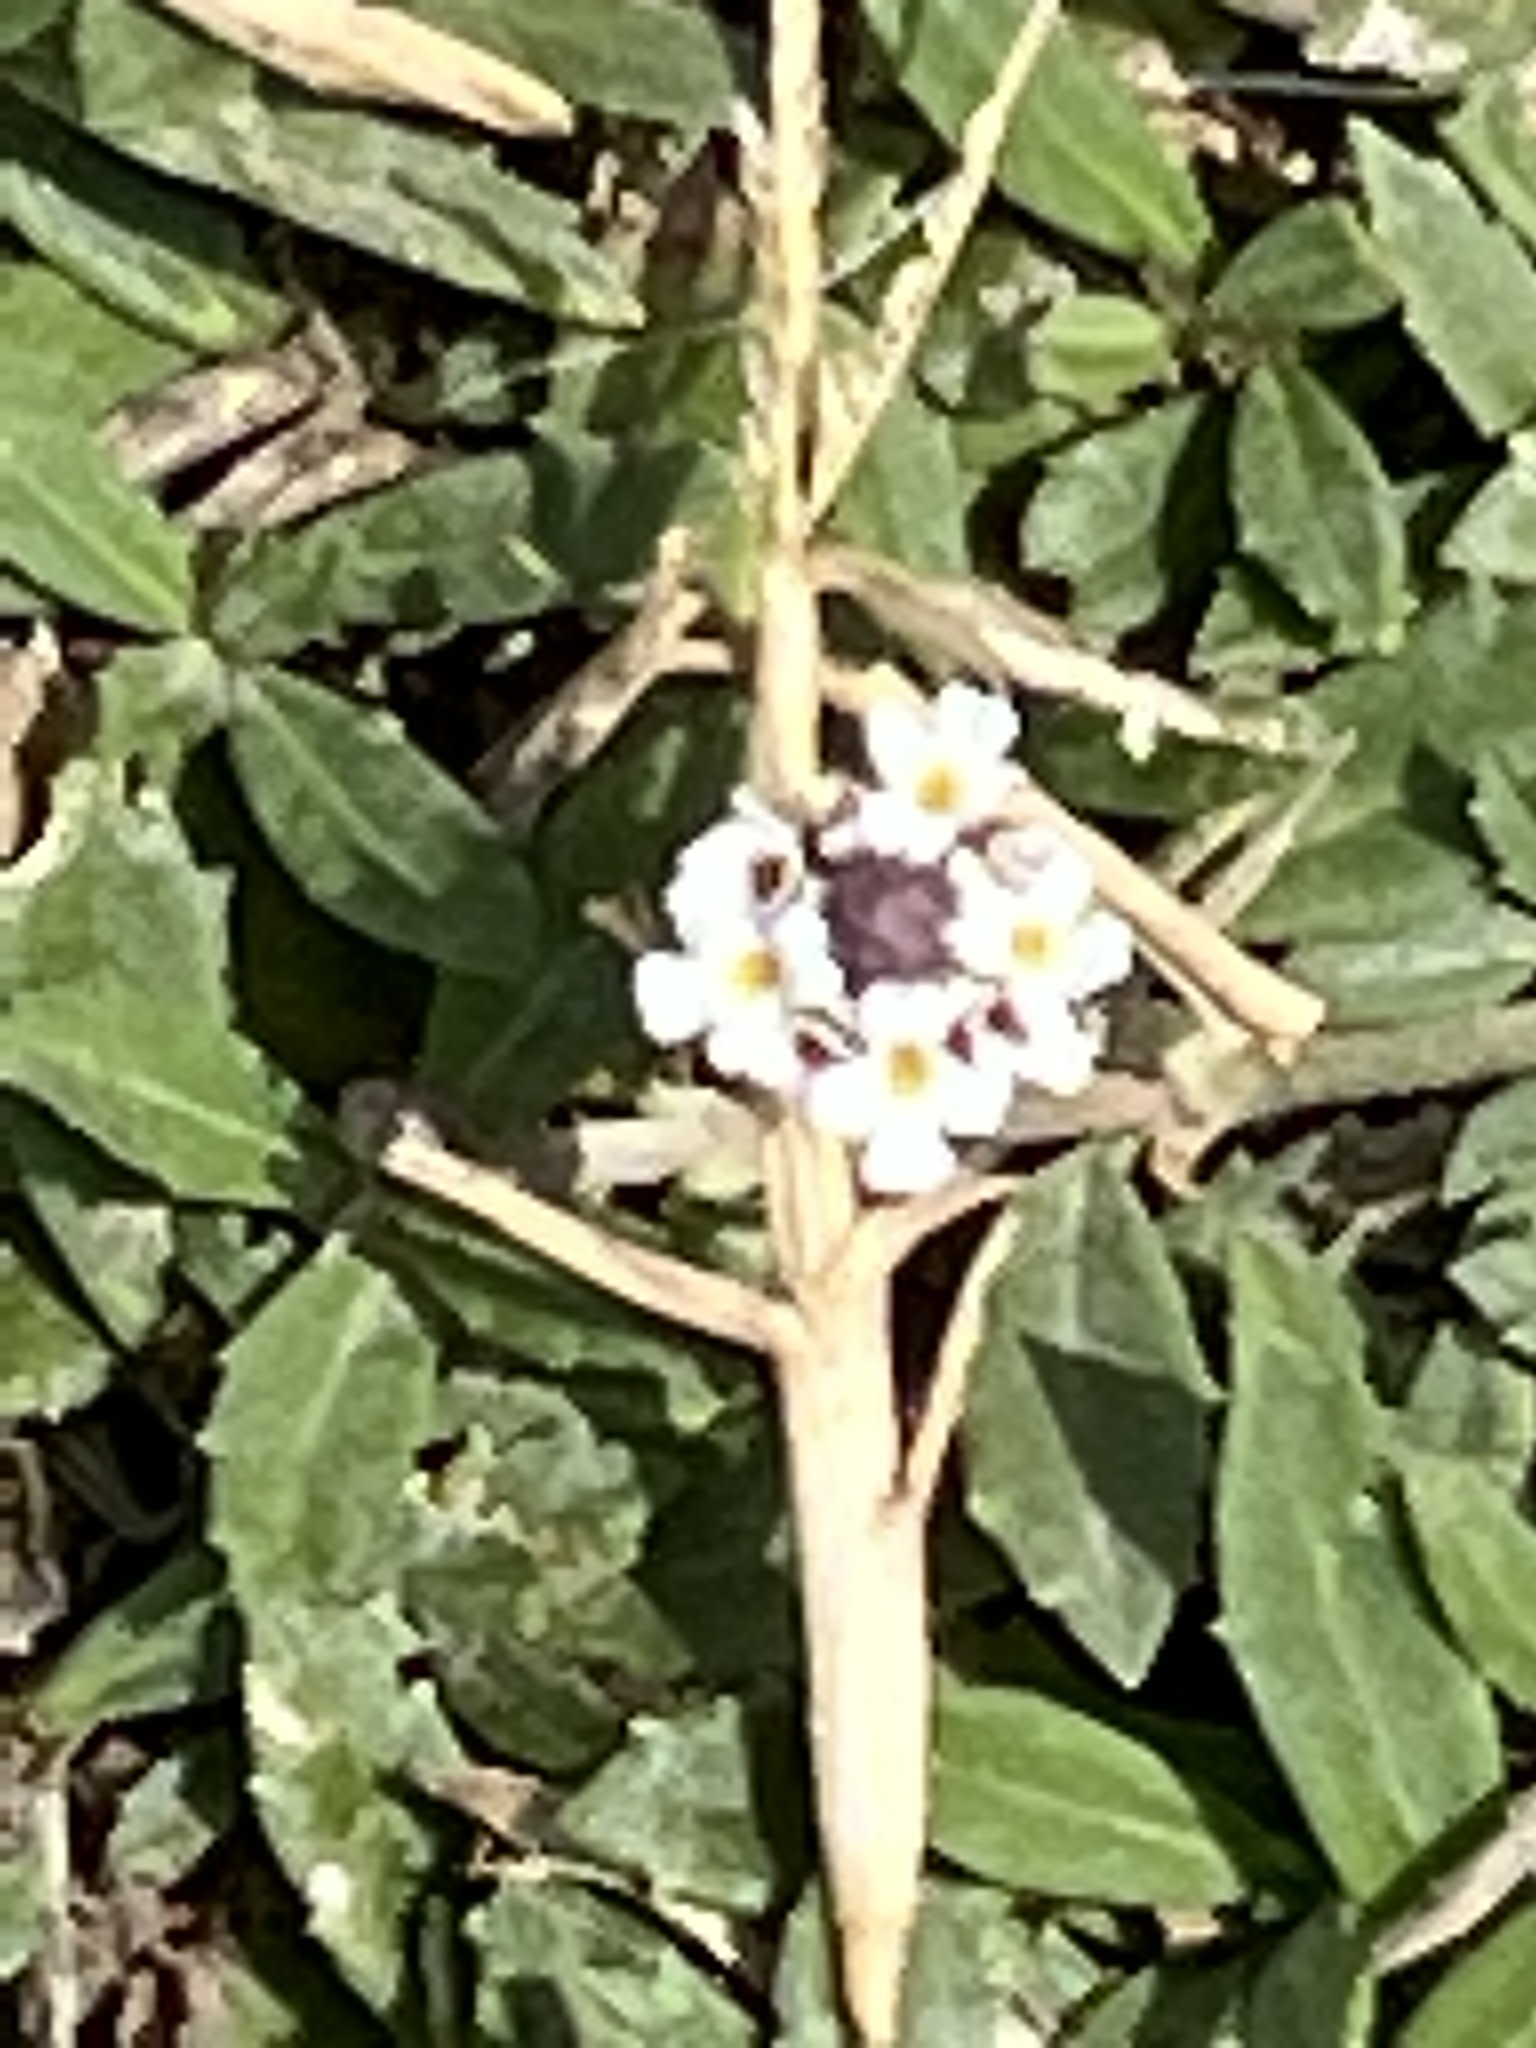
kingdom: Plantae
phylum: Tracheophyta
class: Magnoliopsida
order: Lamiales
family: Verbenaceae
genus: Phyla
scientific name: Phyla nodiflora
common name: Frogfruit
